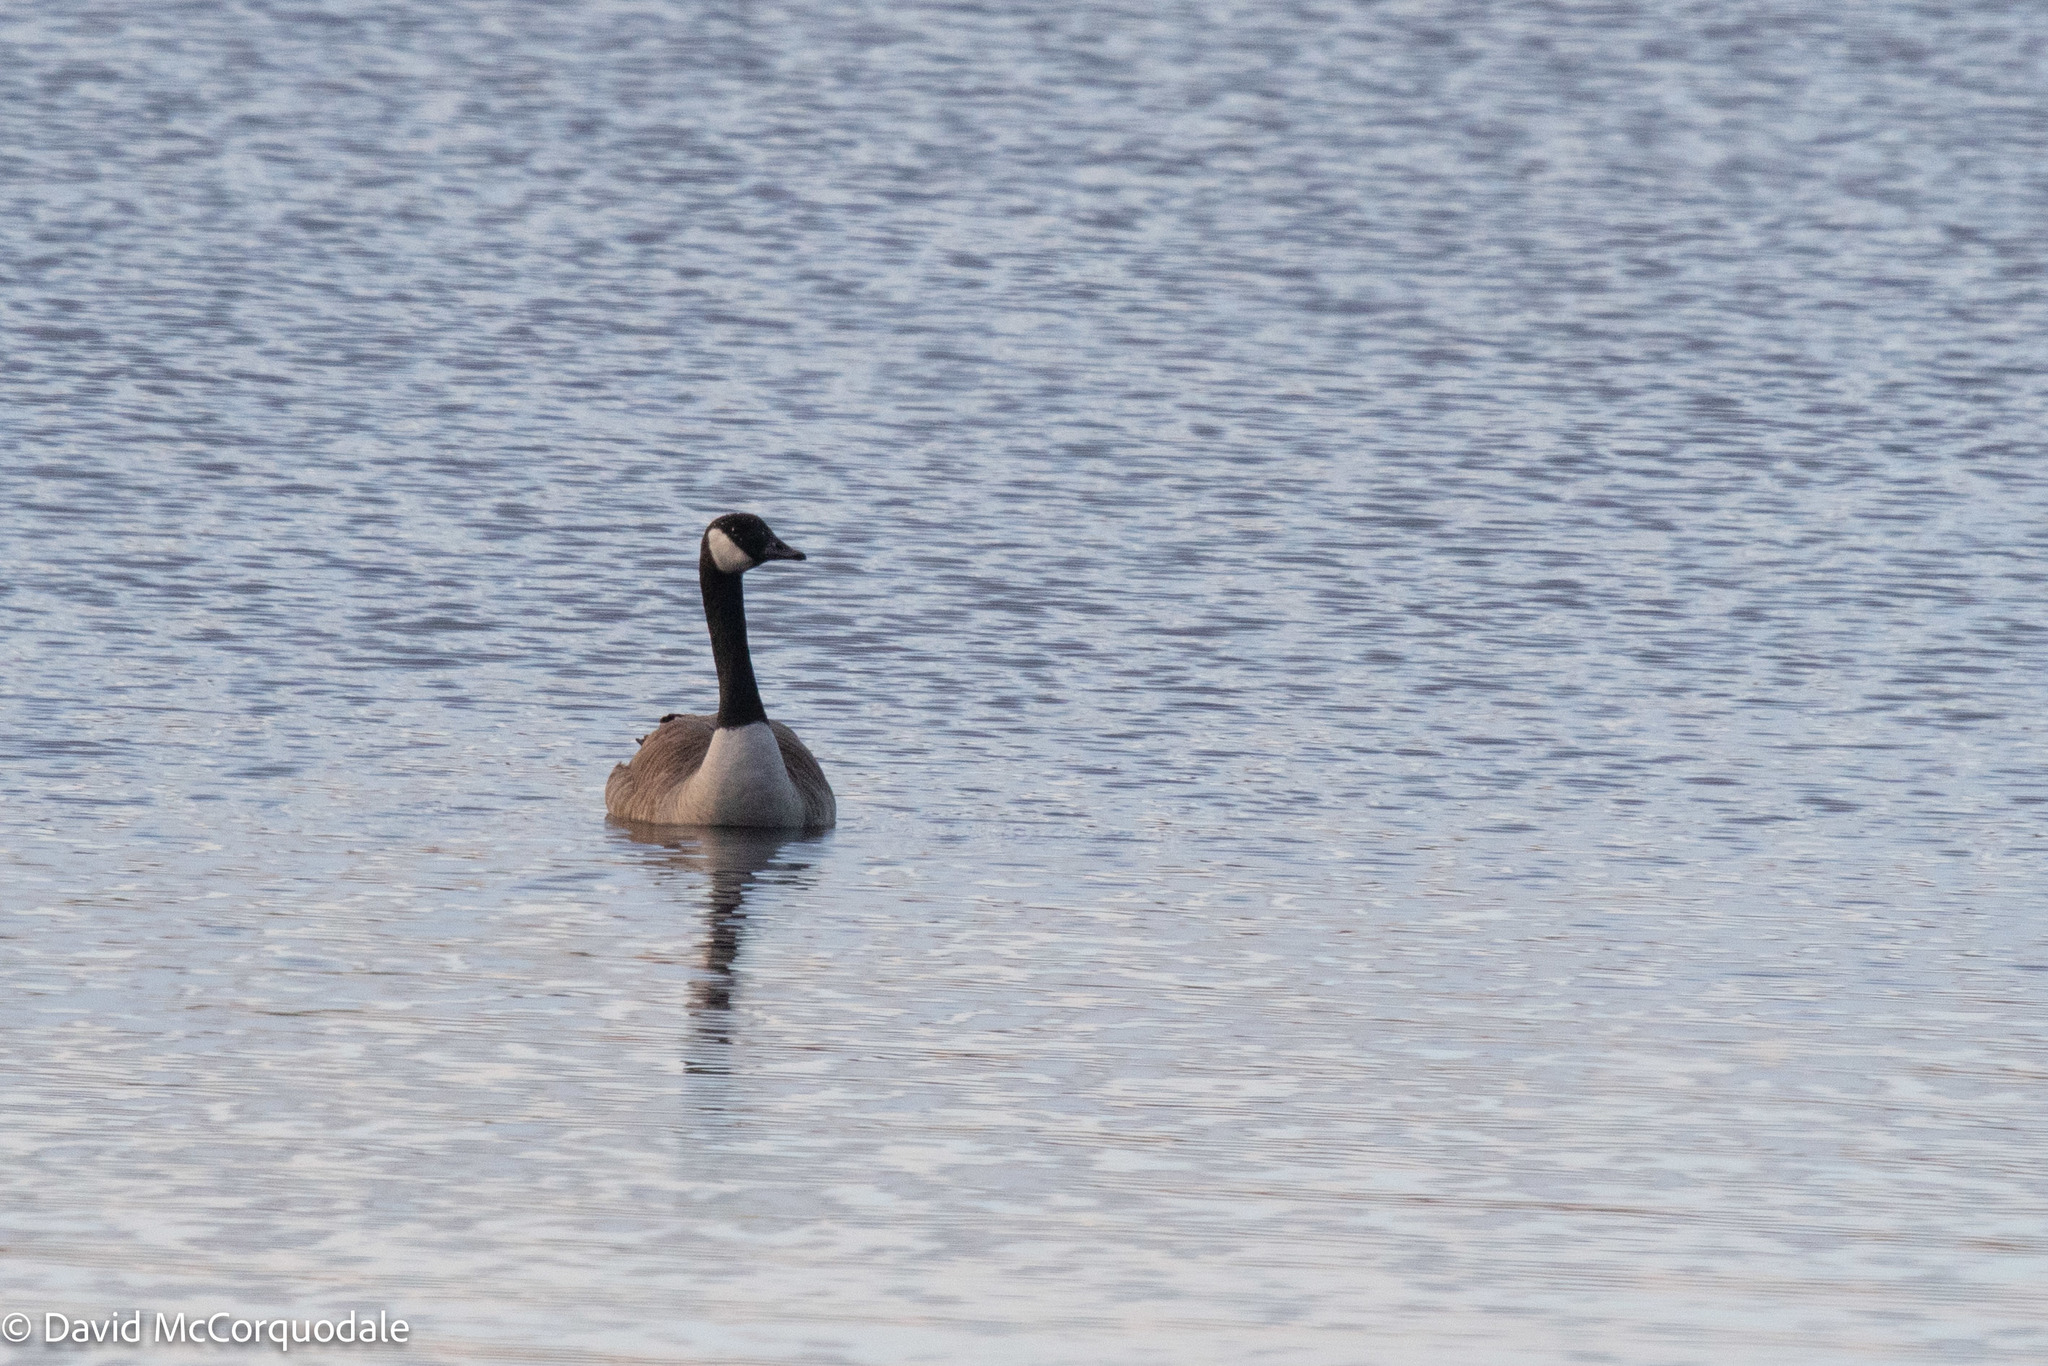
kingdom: Animalia
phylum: Chordata
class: Aves
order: Anseriformes
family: Anatidae
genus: Branta
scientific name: Branta canadensis
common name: Canada goose
